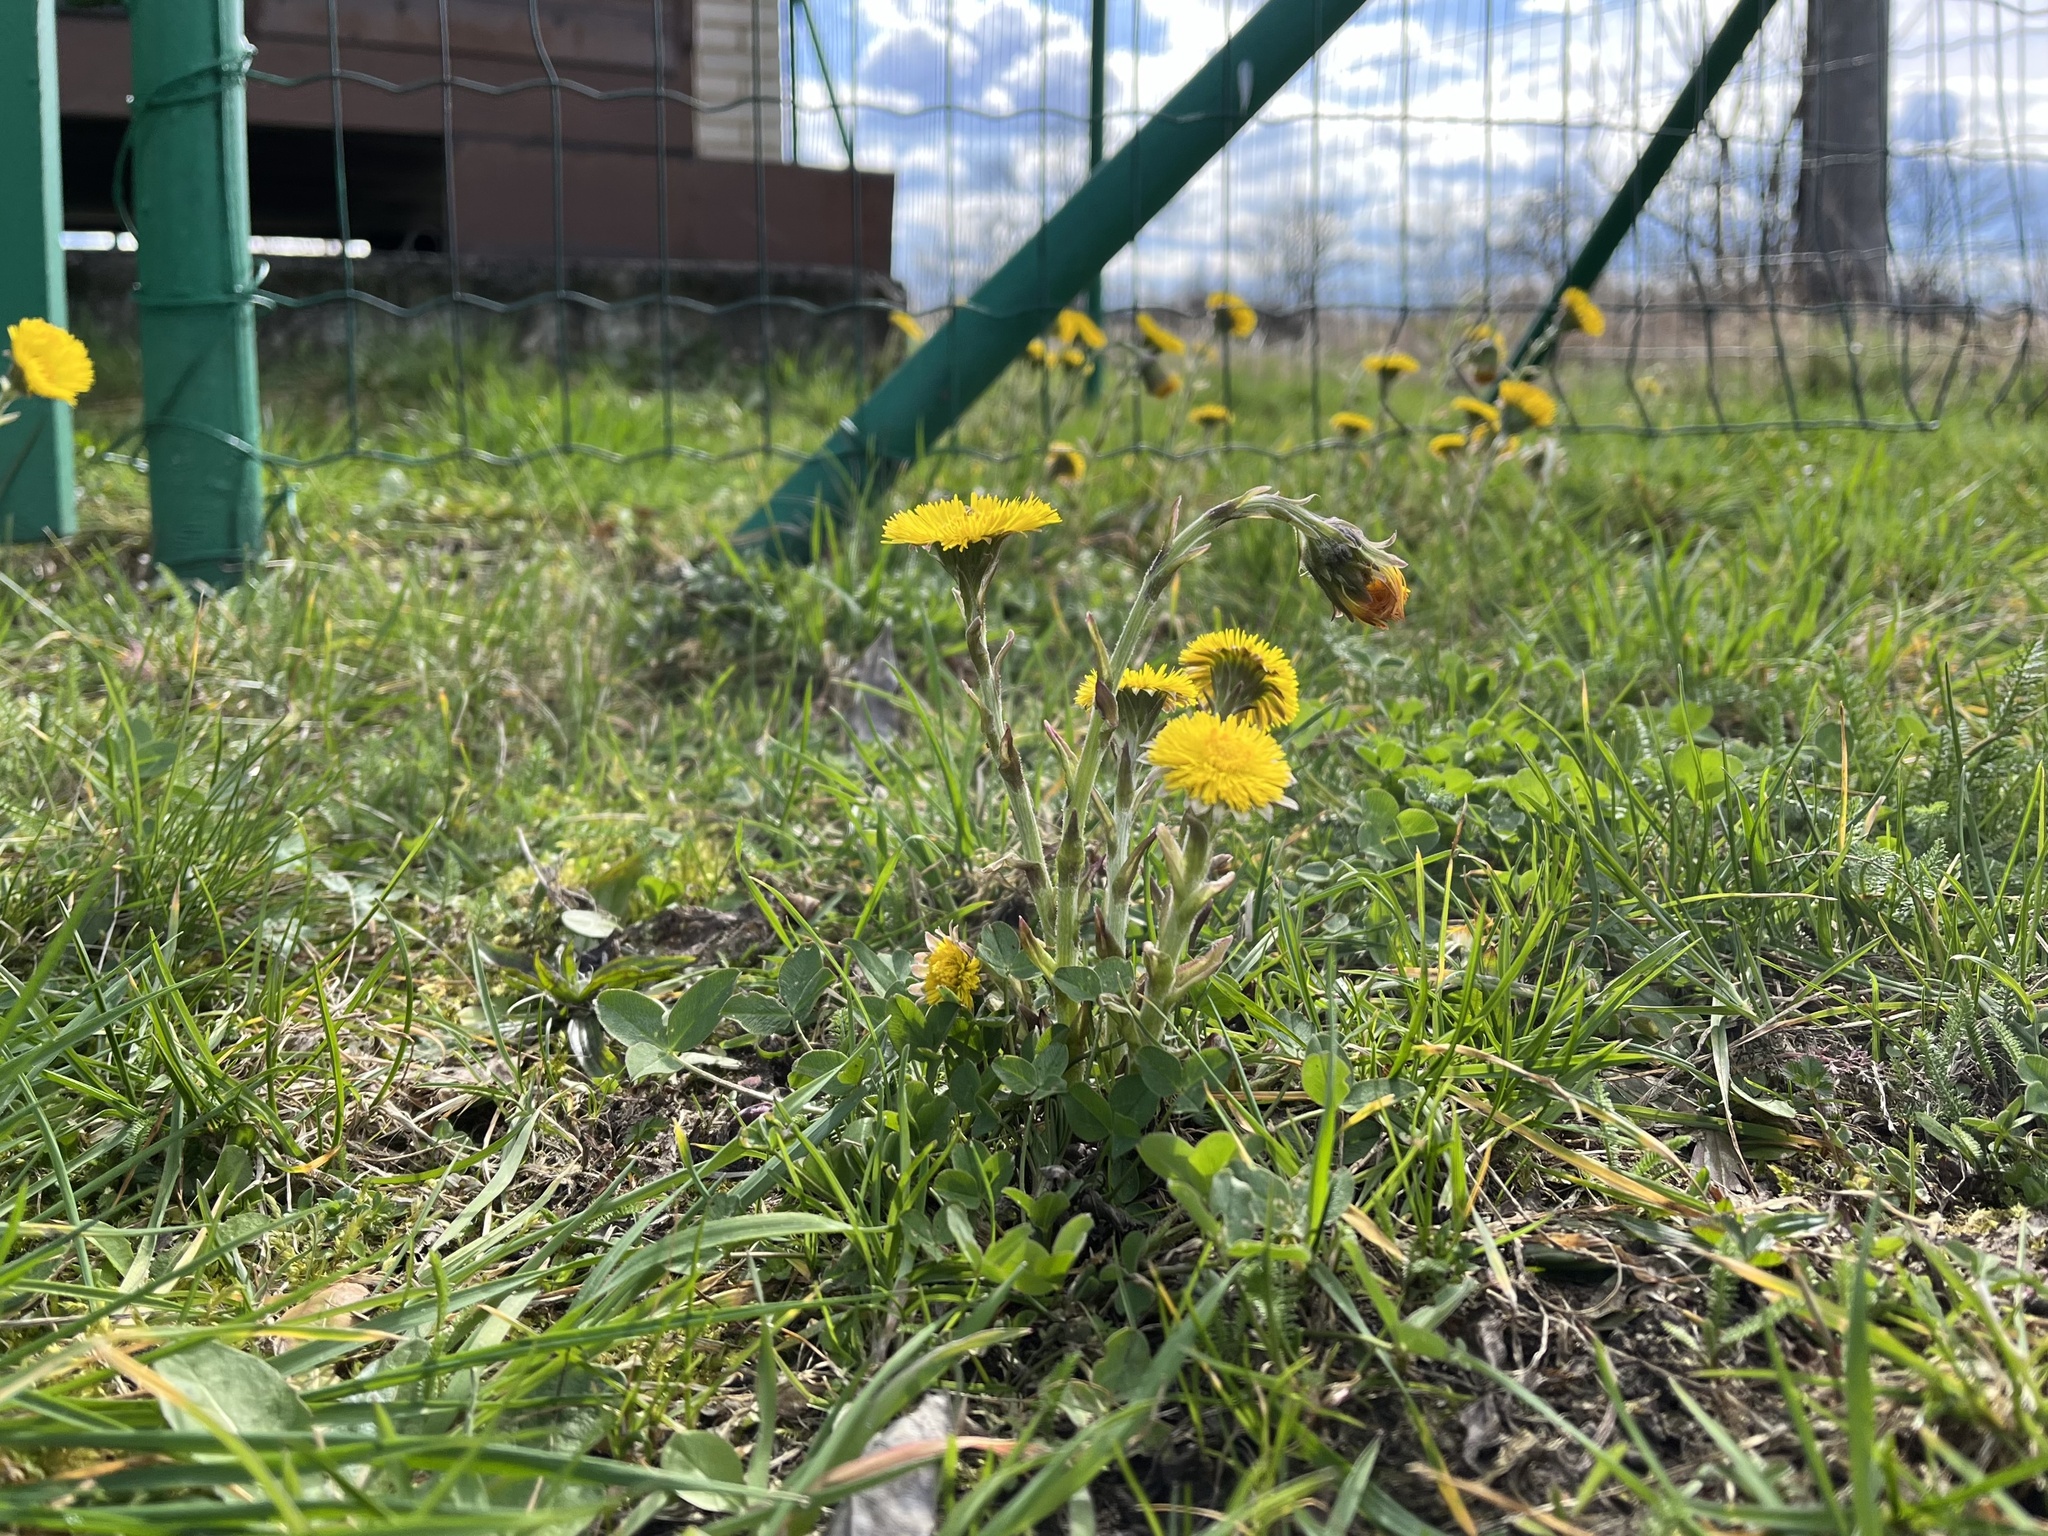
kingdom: Plantae
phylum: Tracheophyta
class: Magnoliopsida
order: Asterales
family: Asteraceae
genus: Tussilago
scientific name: Tussilago farfara
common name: Coltsfoot
